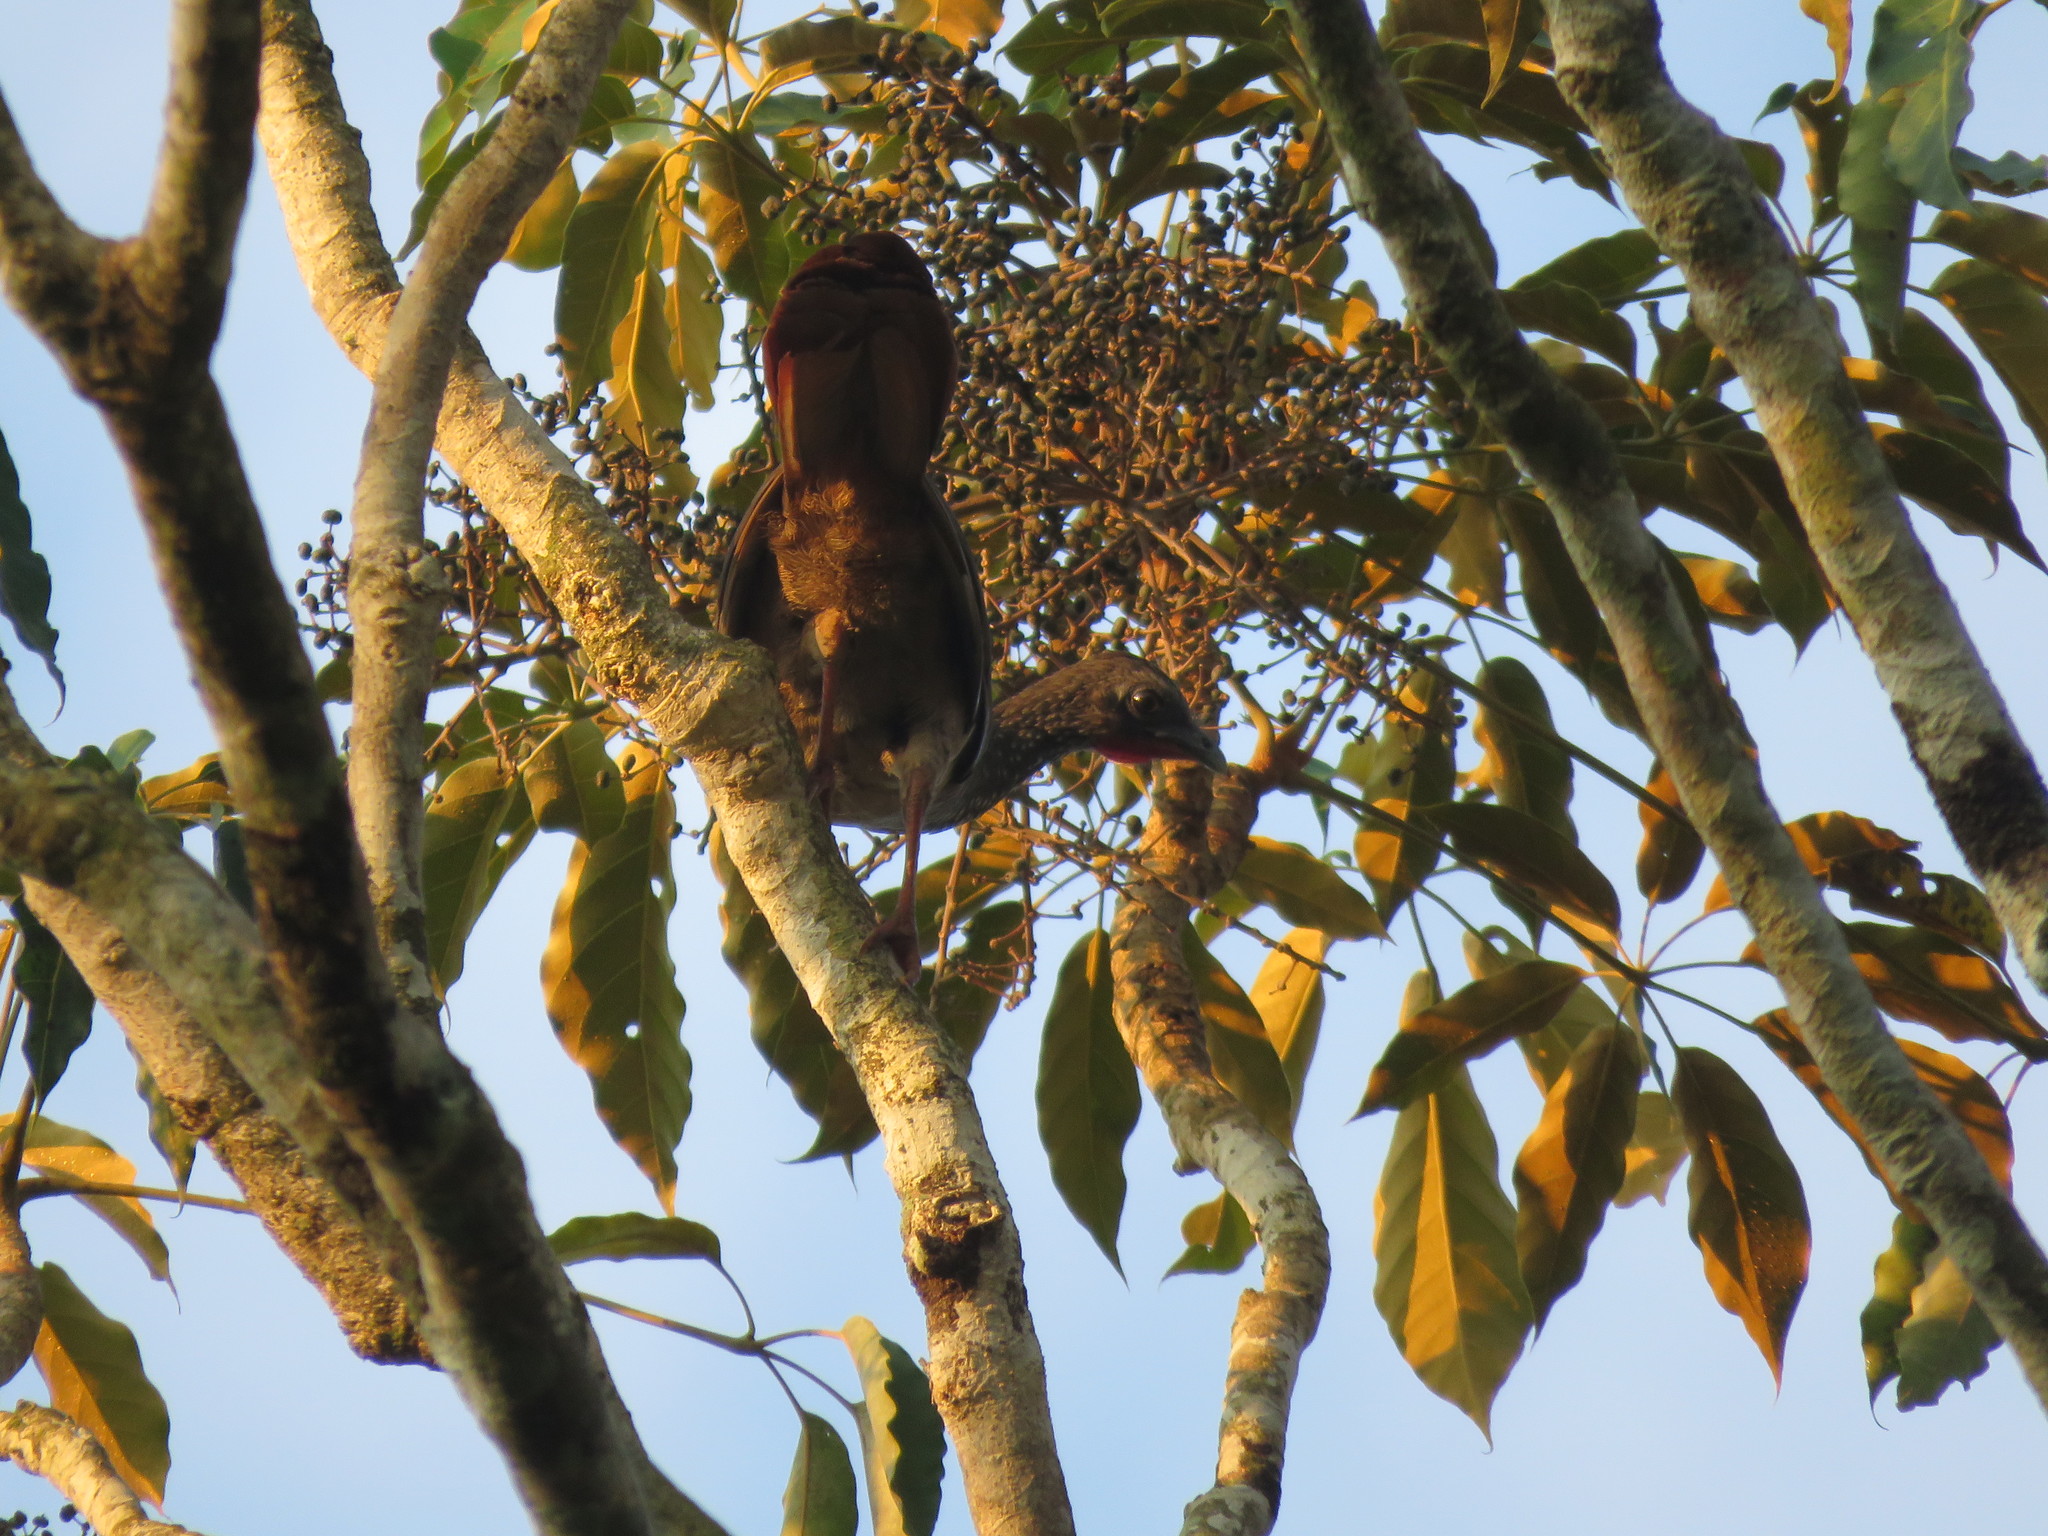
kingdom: Animalia
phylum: Chordata
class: Aves
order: Galliformes
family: Cracidae
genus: Ortalis
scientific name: Ortalis guttata
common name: Speckled chachalaca
